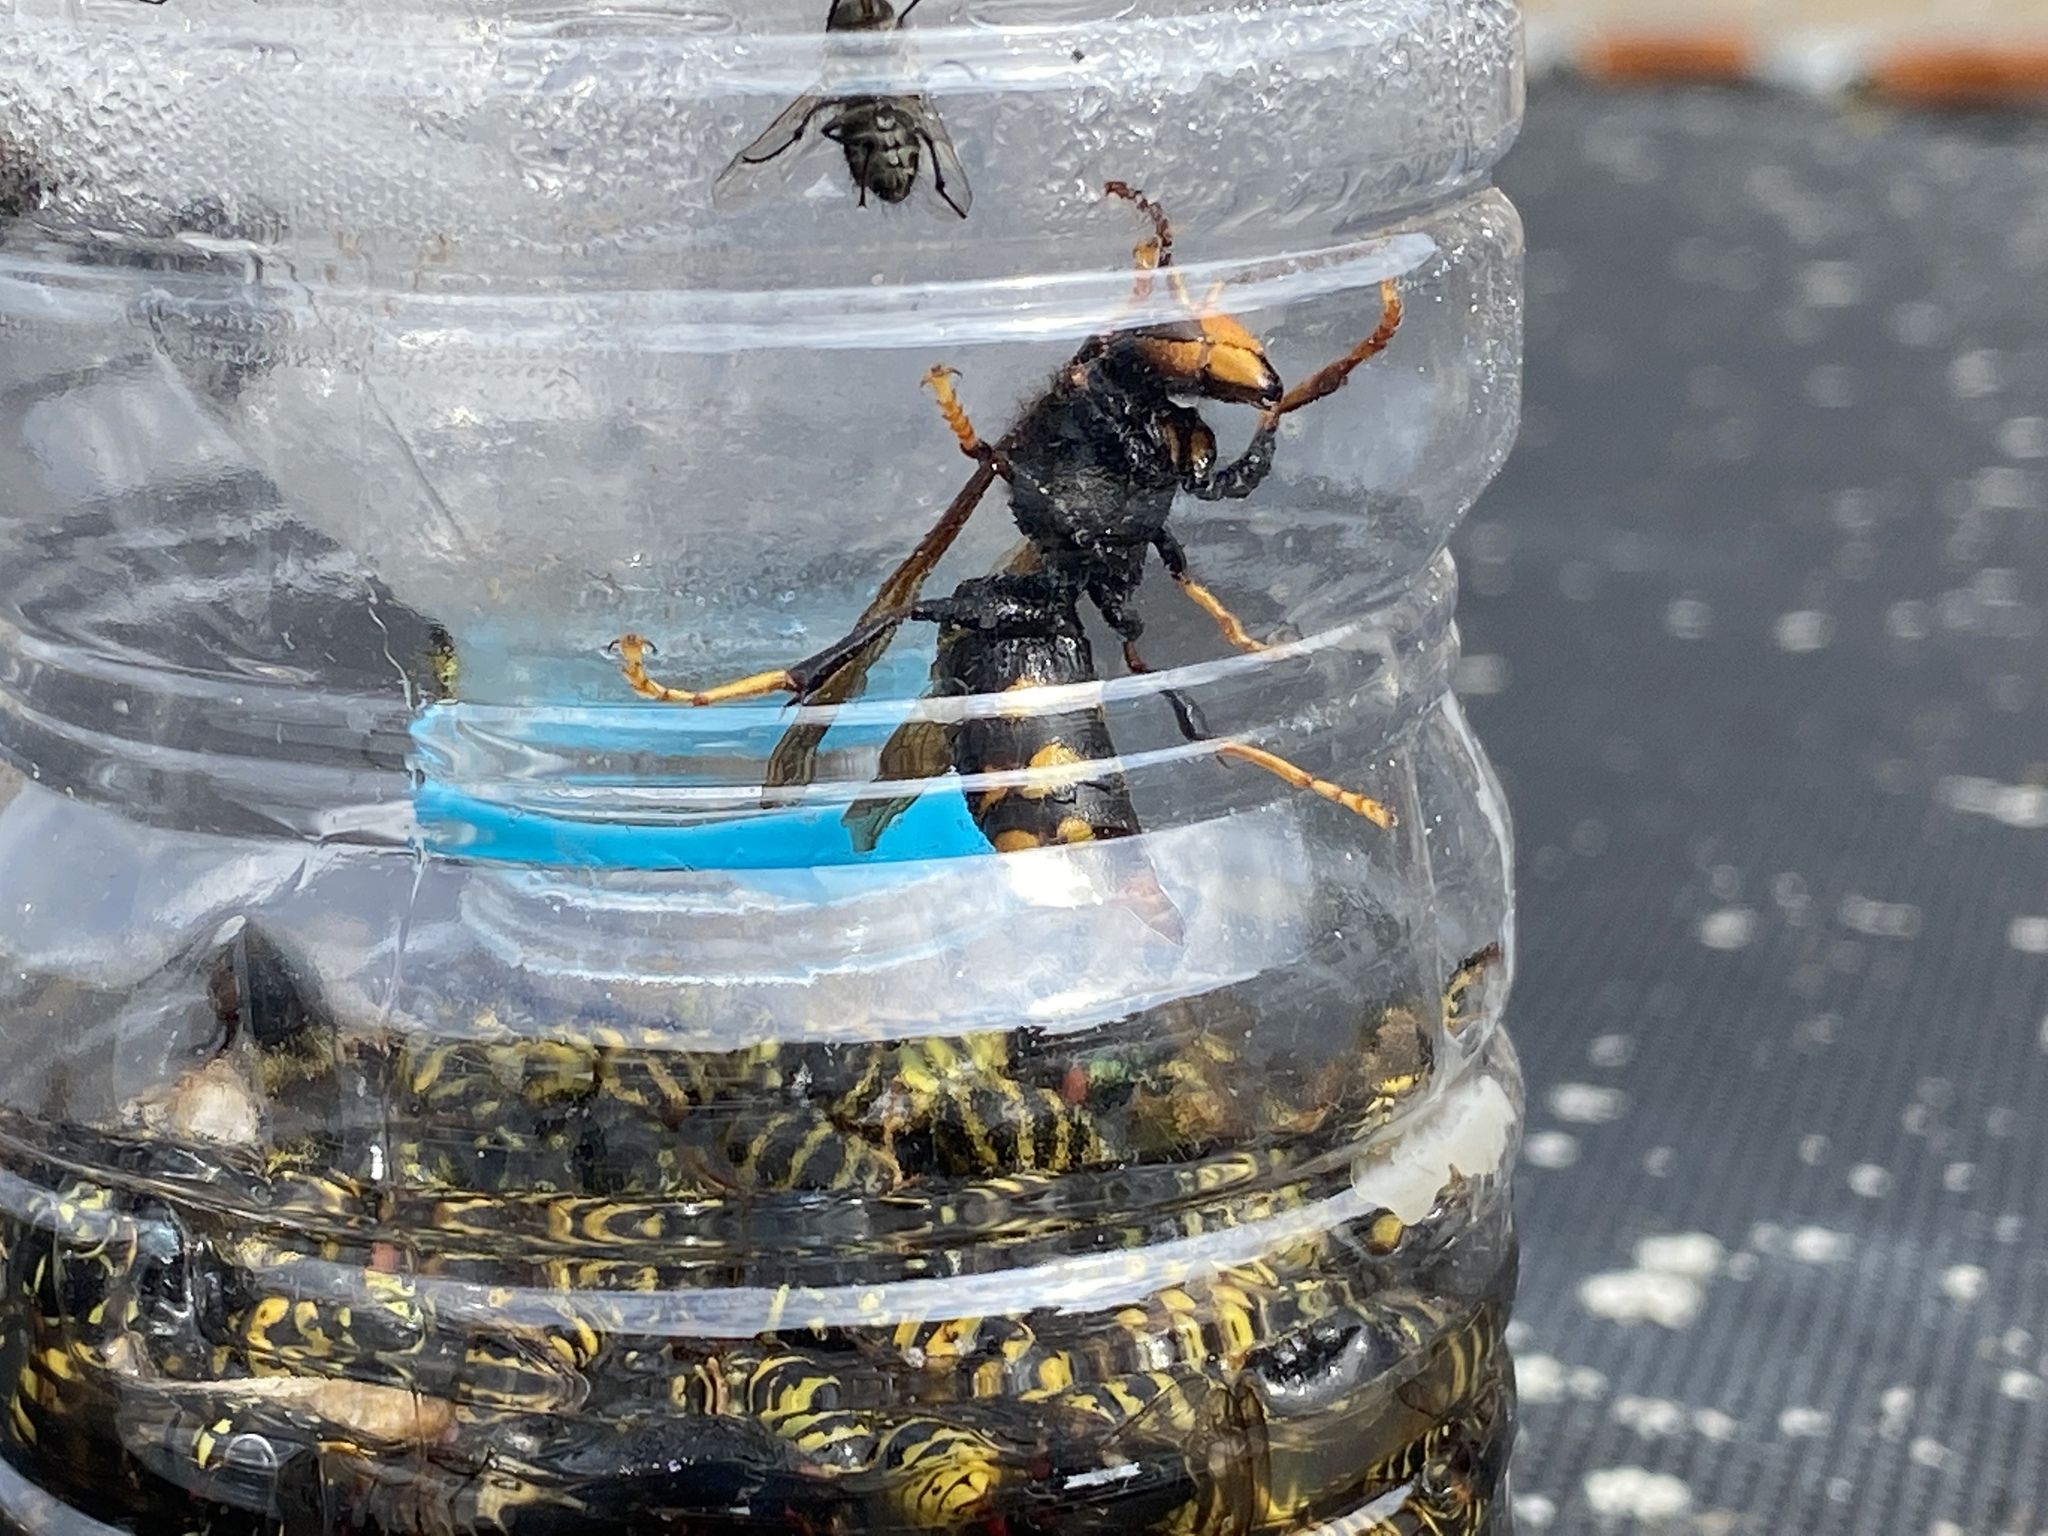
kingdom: Animalia
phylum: Arthropoda
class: Insecta
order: Hymenoptera
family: Vespidae
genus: Vespa
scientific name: Vespa velutina
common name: Asian hornet
